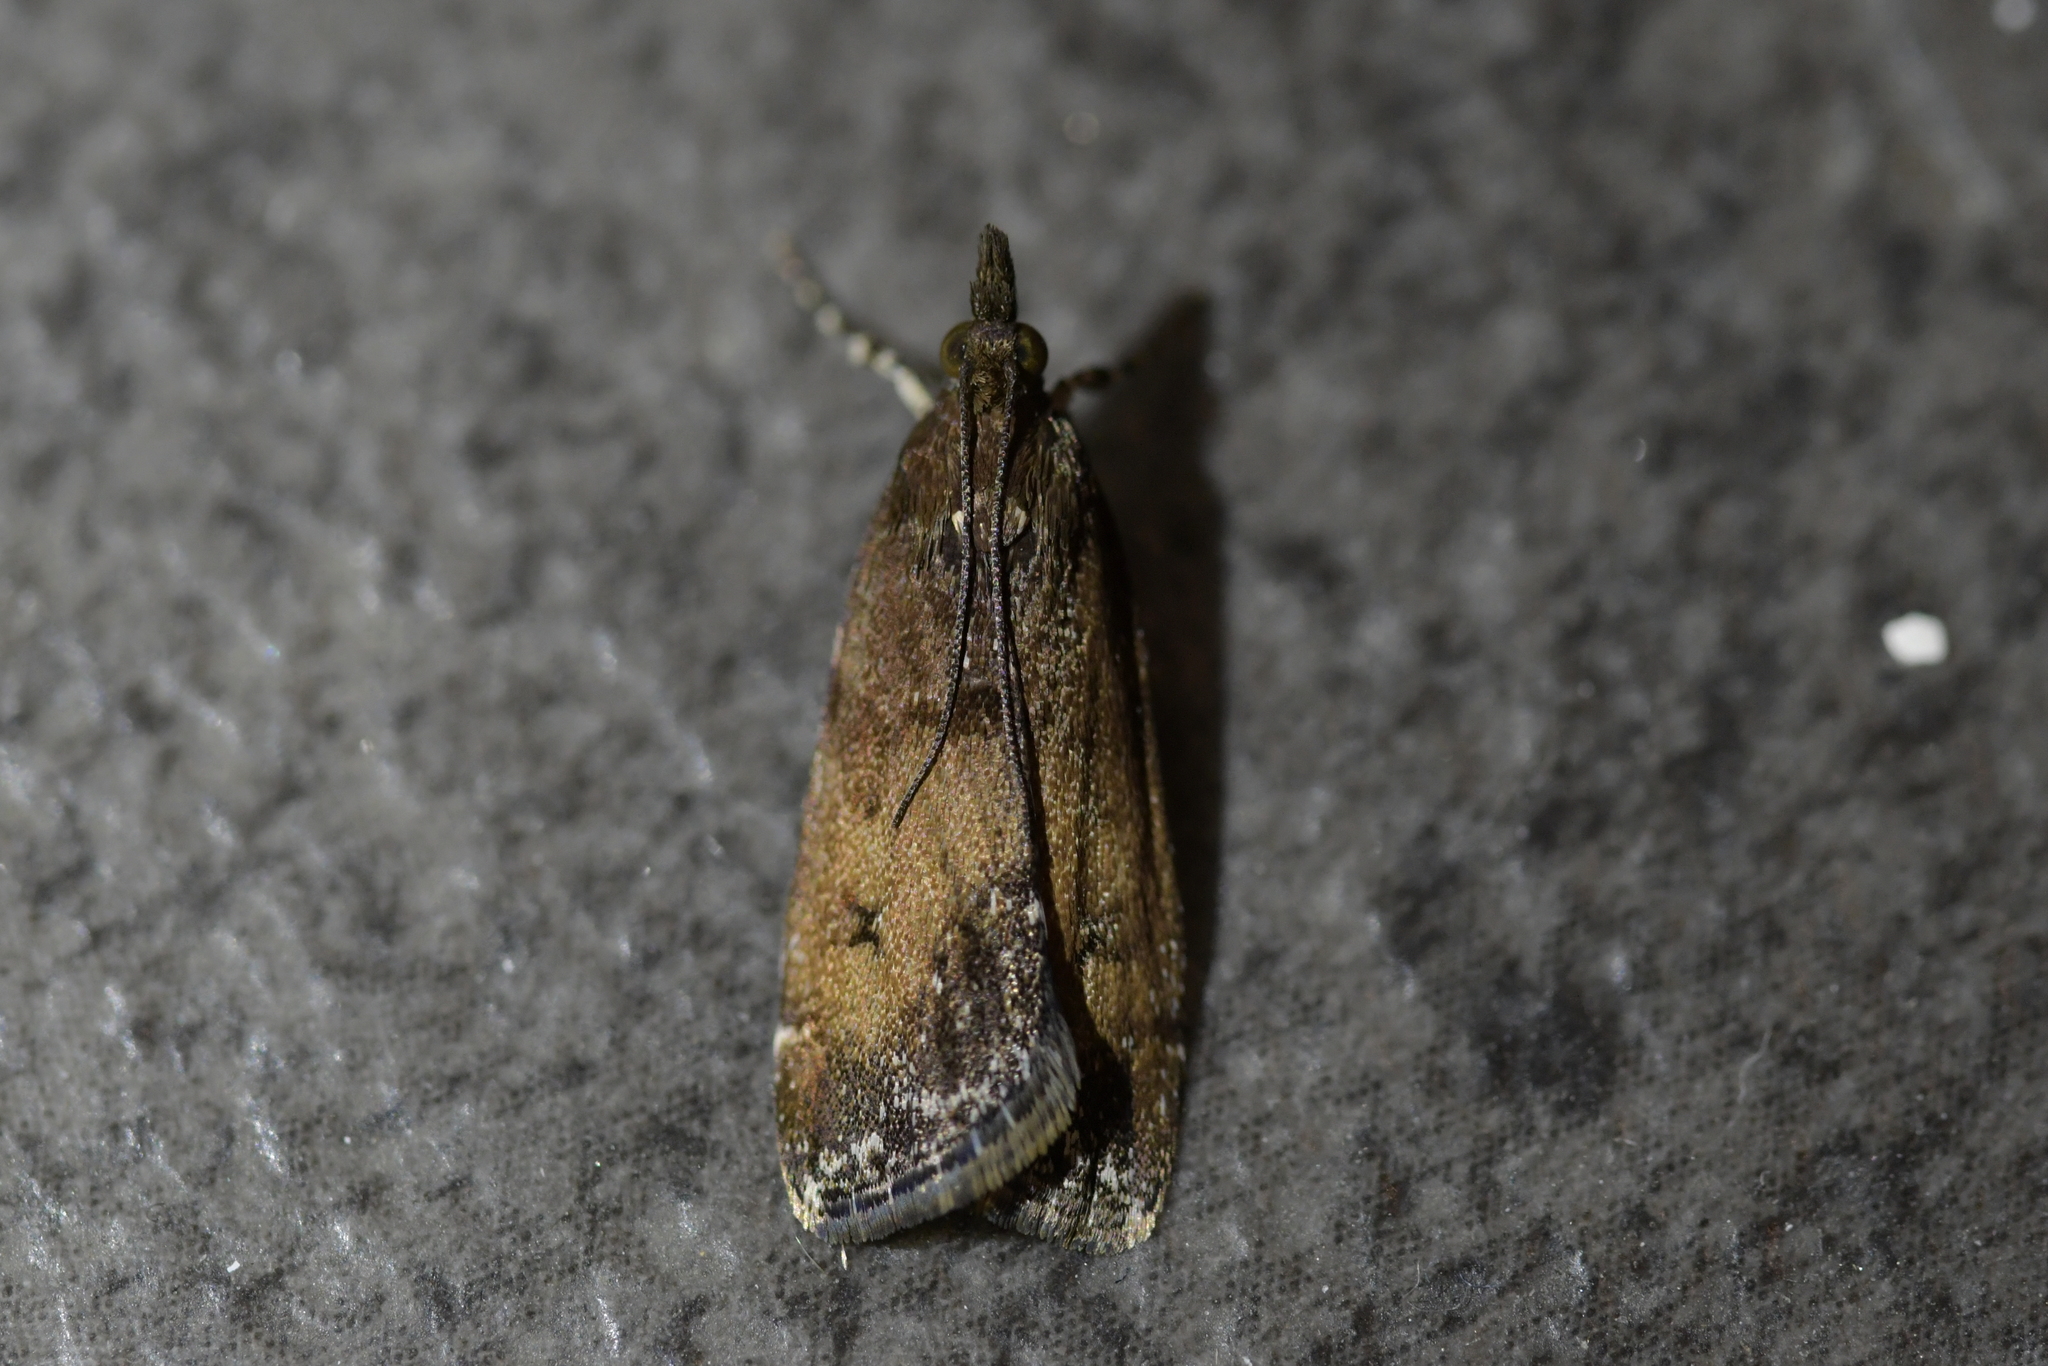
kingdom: Animalia
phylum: Arthropoda
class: Insecta
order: Lepidoptera
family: Crambidae
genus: Eudonia
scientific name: Eudonia asterisca
